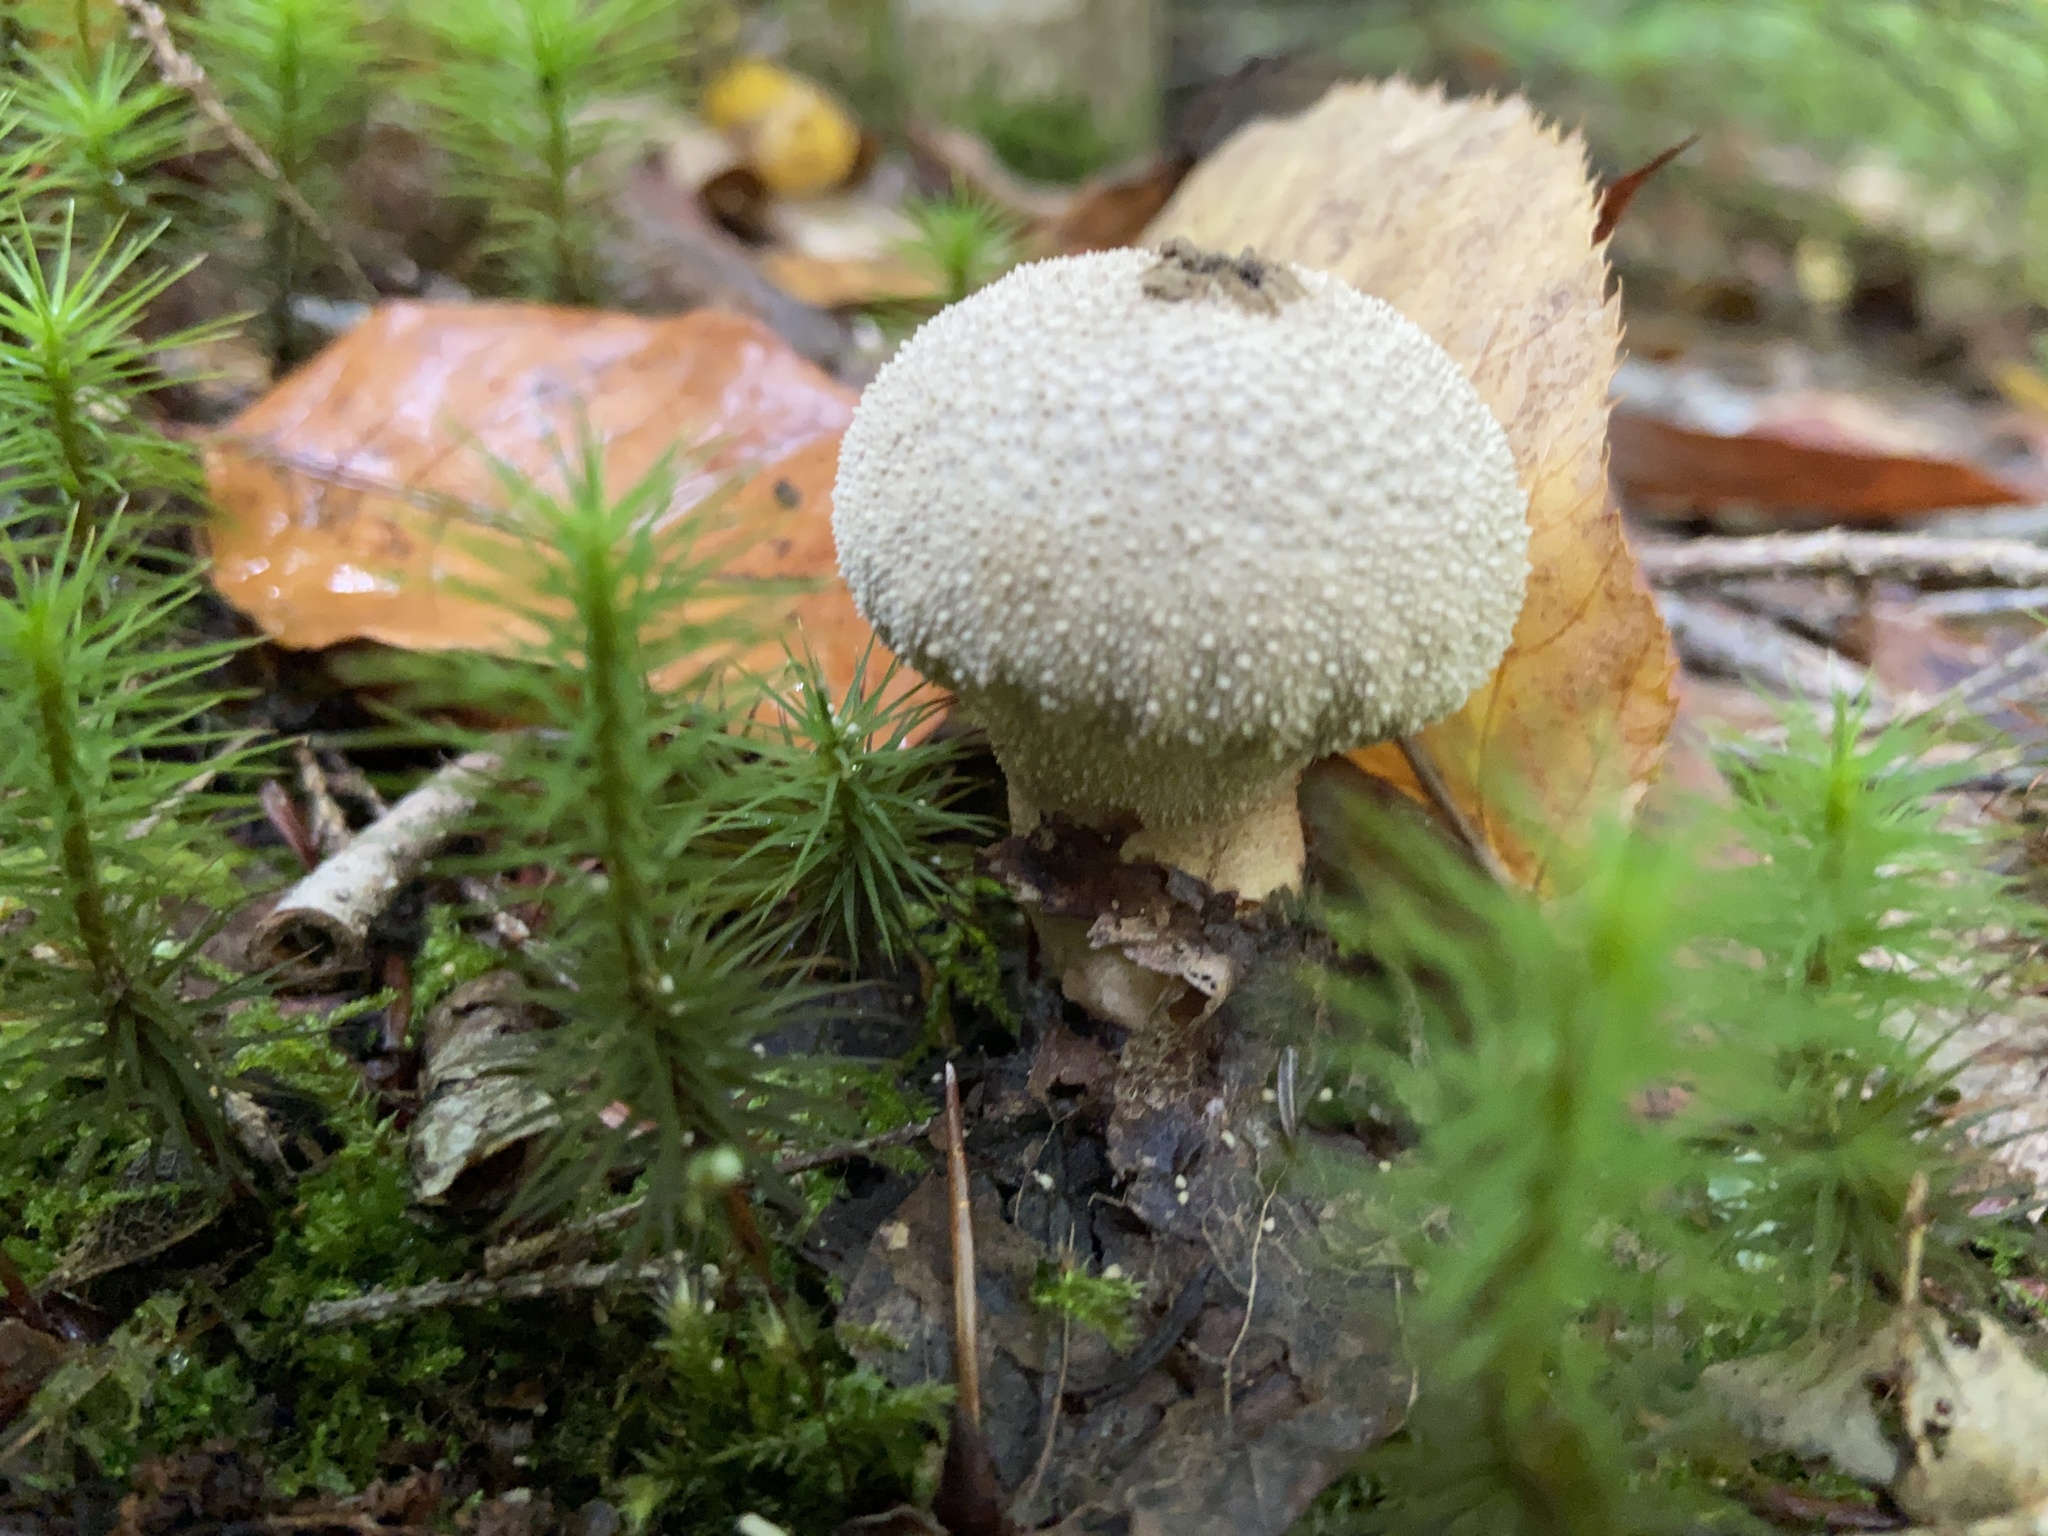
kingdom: Fungi
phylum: Basidiomycota
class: Agaricomycetes
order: Agaricales
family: Lycoperdaceae
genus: Lycoperdon
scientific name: Lycoperdon perlatum
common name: Common puffball
